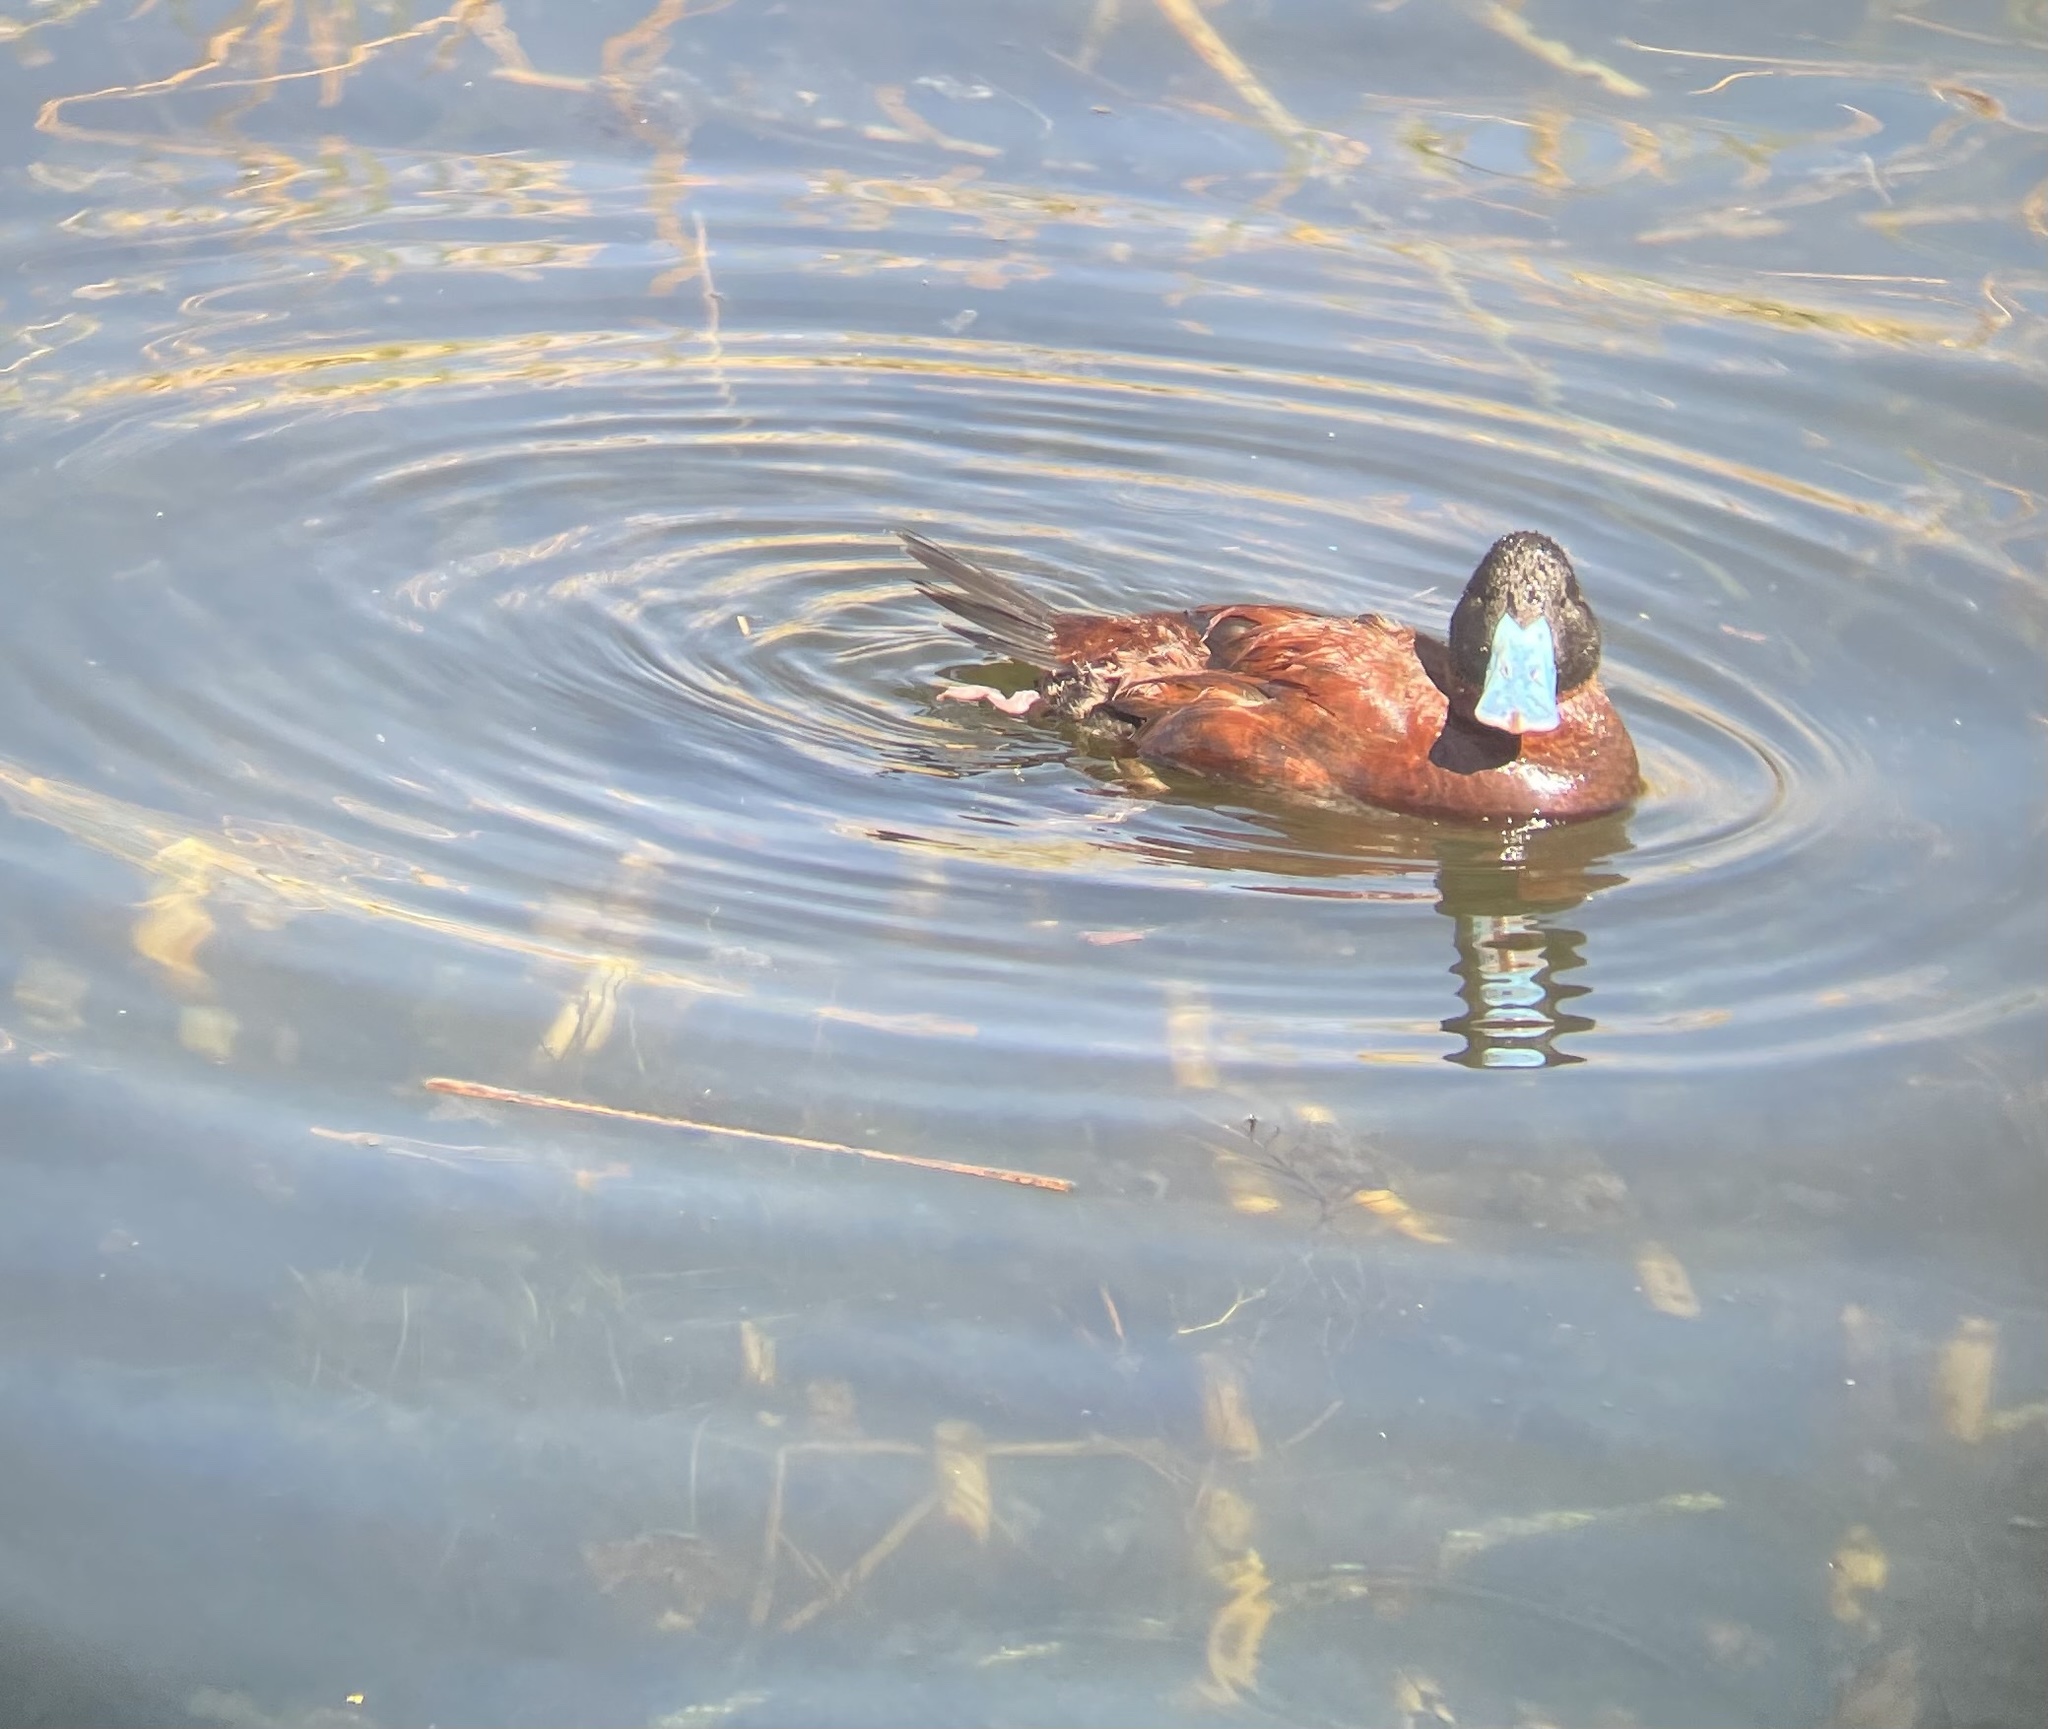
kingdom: Animalia
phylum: Chordata
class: Aves
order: Anseriformes
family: Anatidae
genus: Oxyura
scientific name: Oxyura ferruginea
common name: Andean duck
